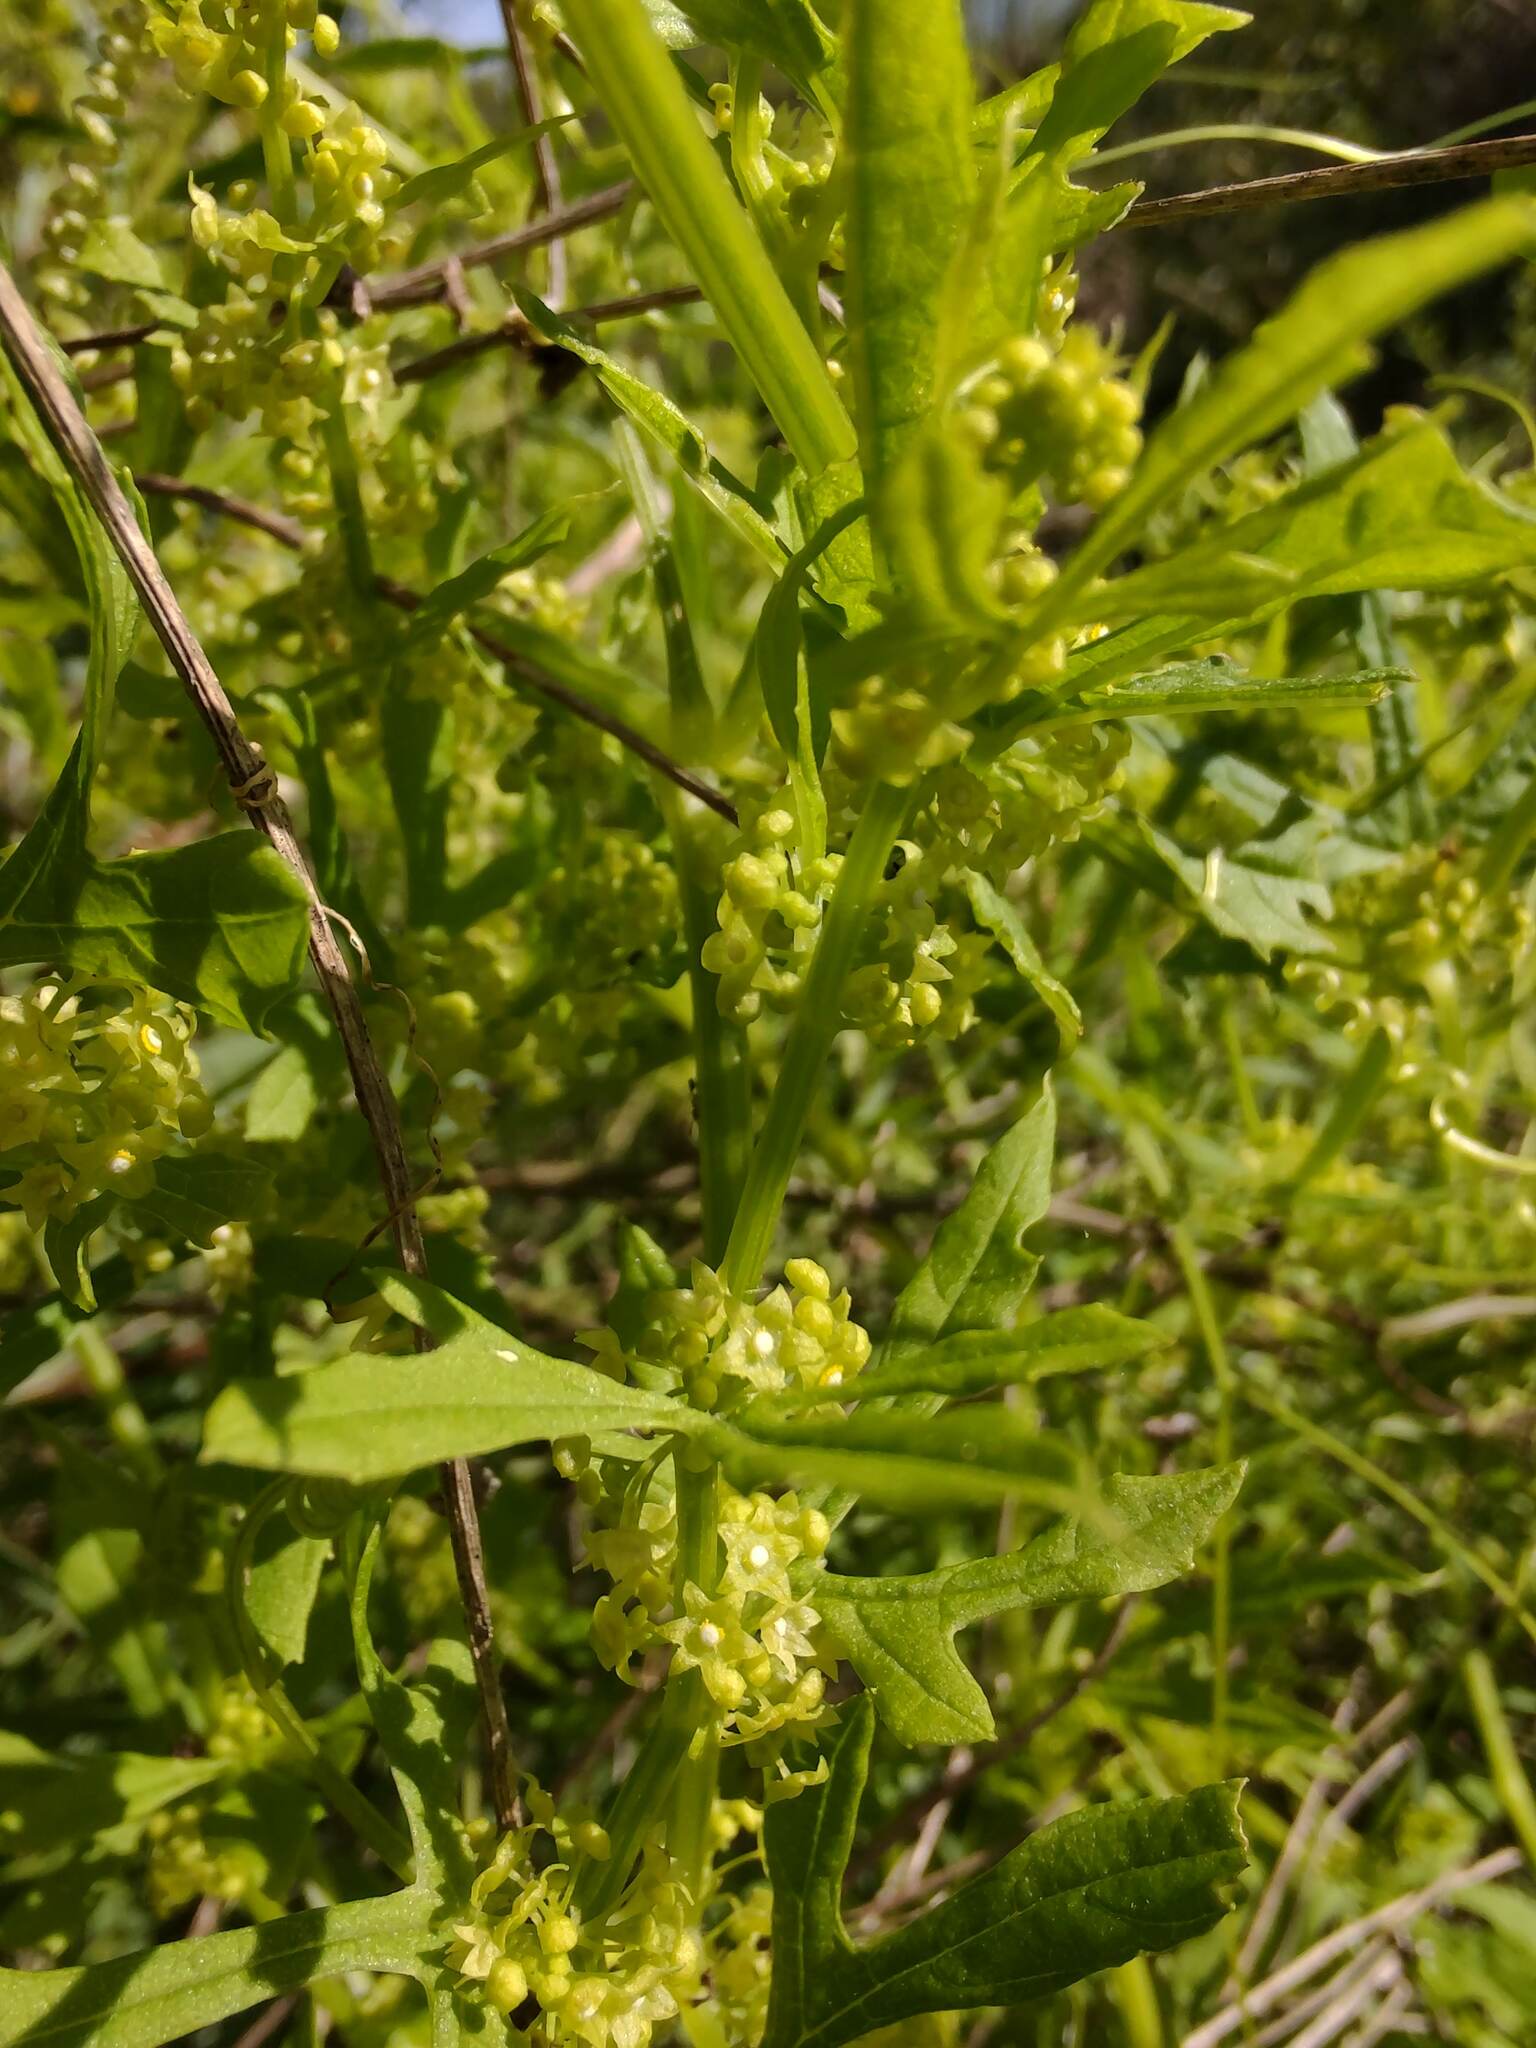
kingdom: Plantae
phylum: Tracheophyta
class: Magnoliopsida
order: Cucurbitales
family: Cucurbitaceae
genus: Cyclanthera
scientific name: Cyclanthera hystrix
